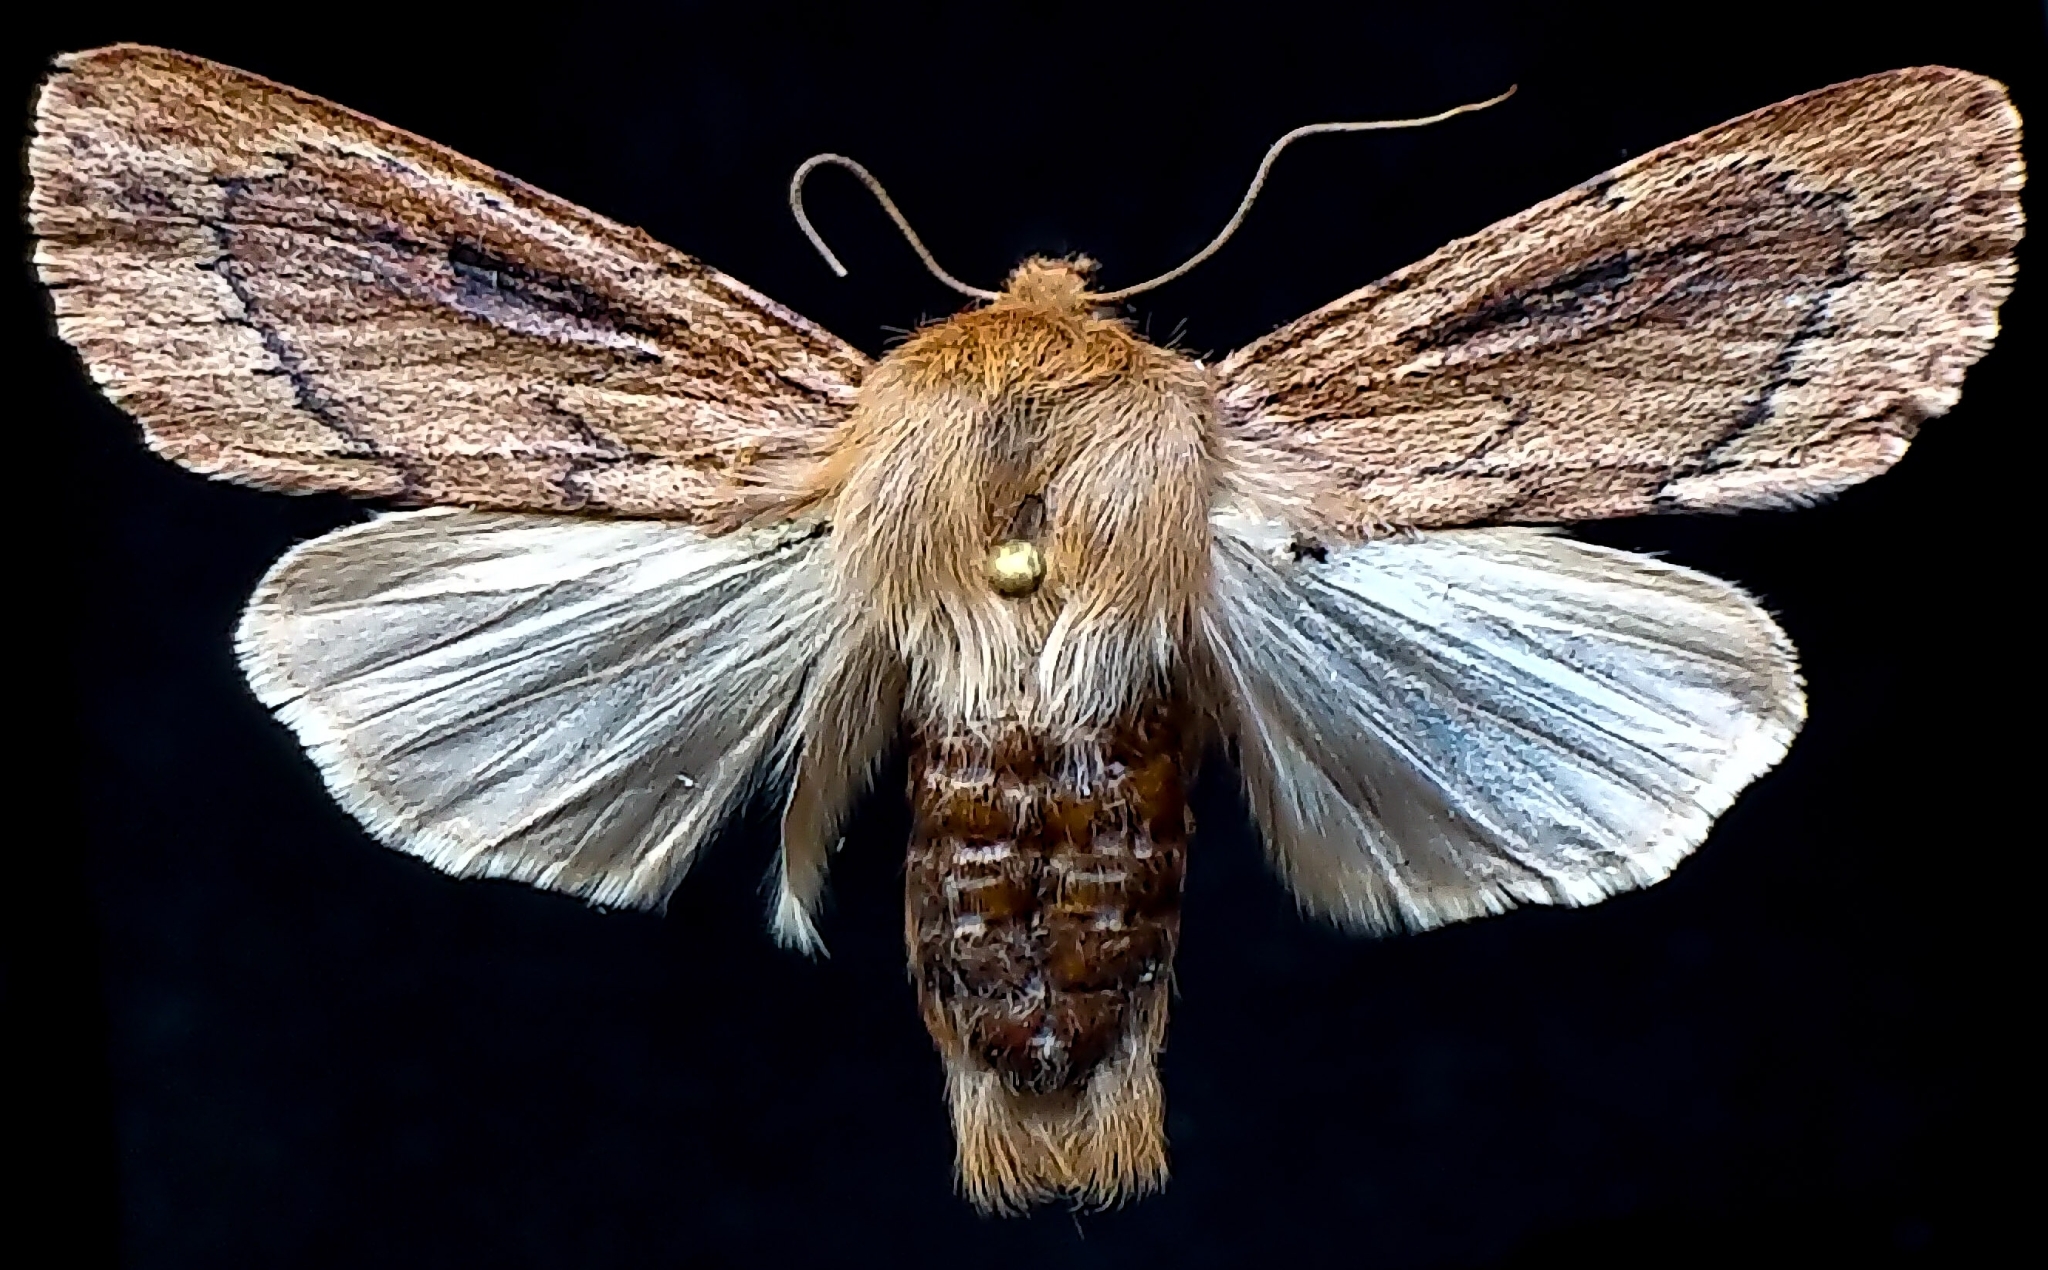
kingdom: Animalia
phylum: Arthropoda
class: Insecta
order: Lepidoptera
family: Noctuidae
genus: Ufeus
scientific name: Ufeus plicatus
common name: Folded satyr
